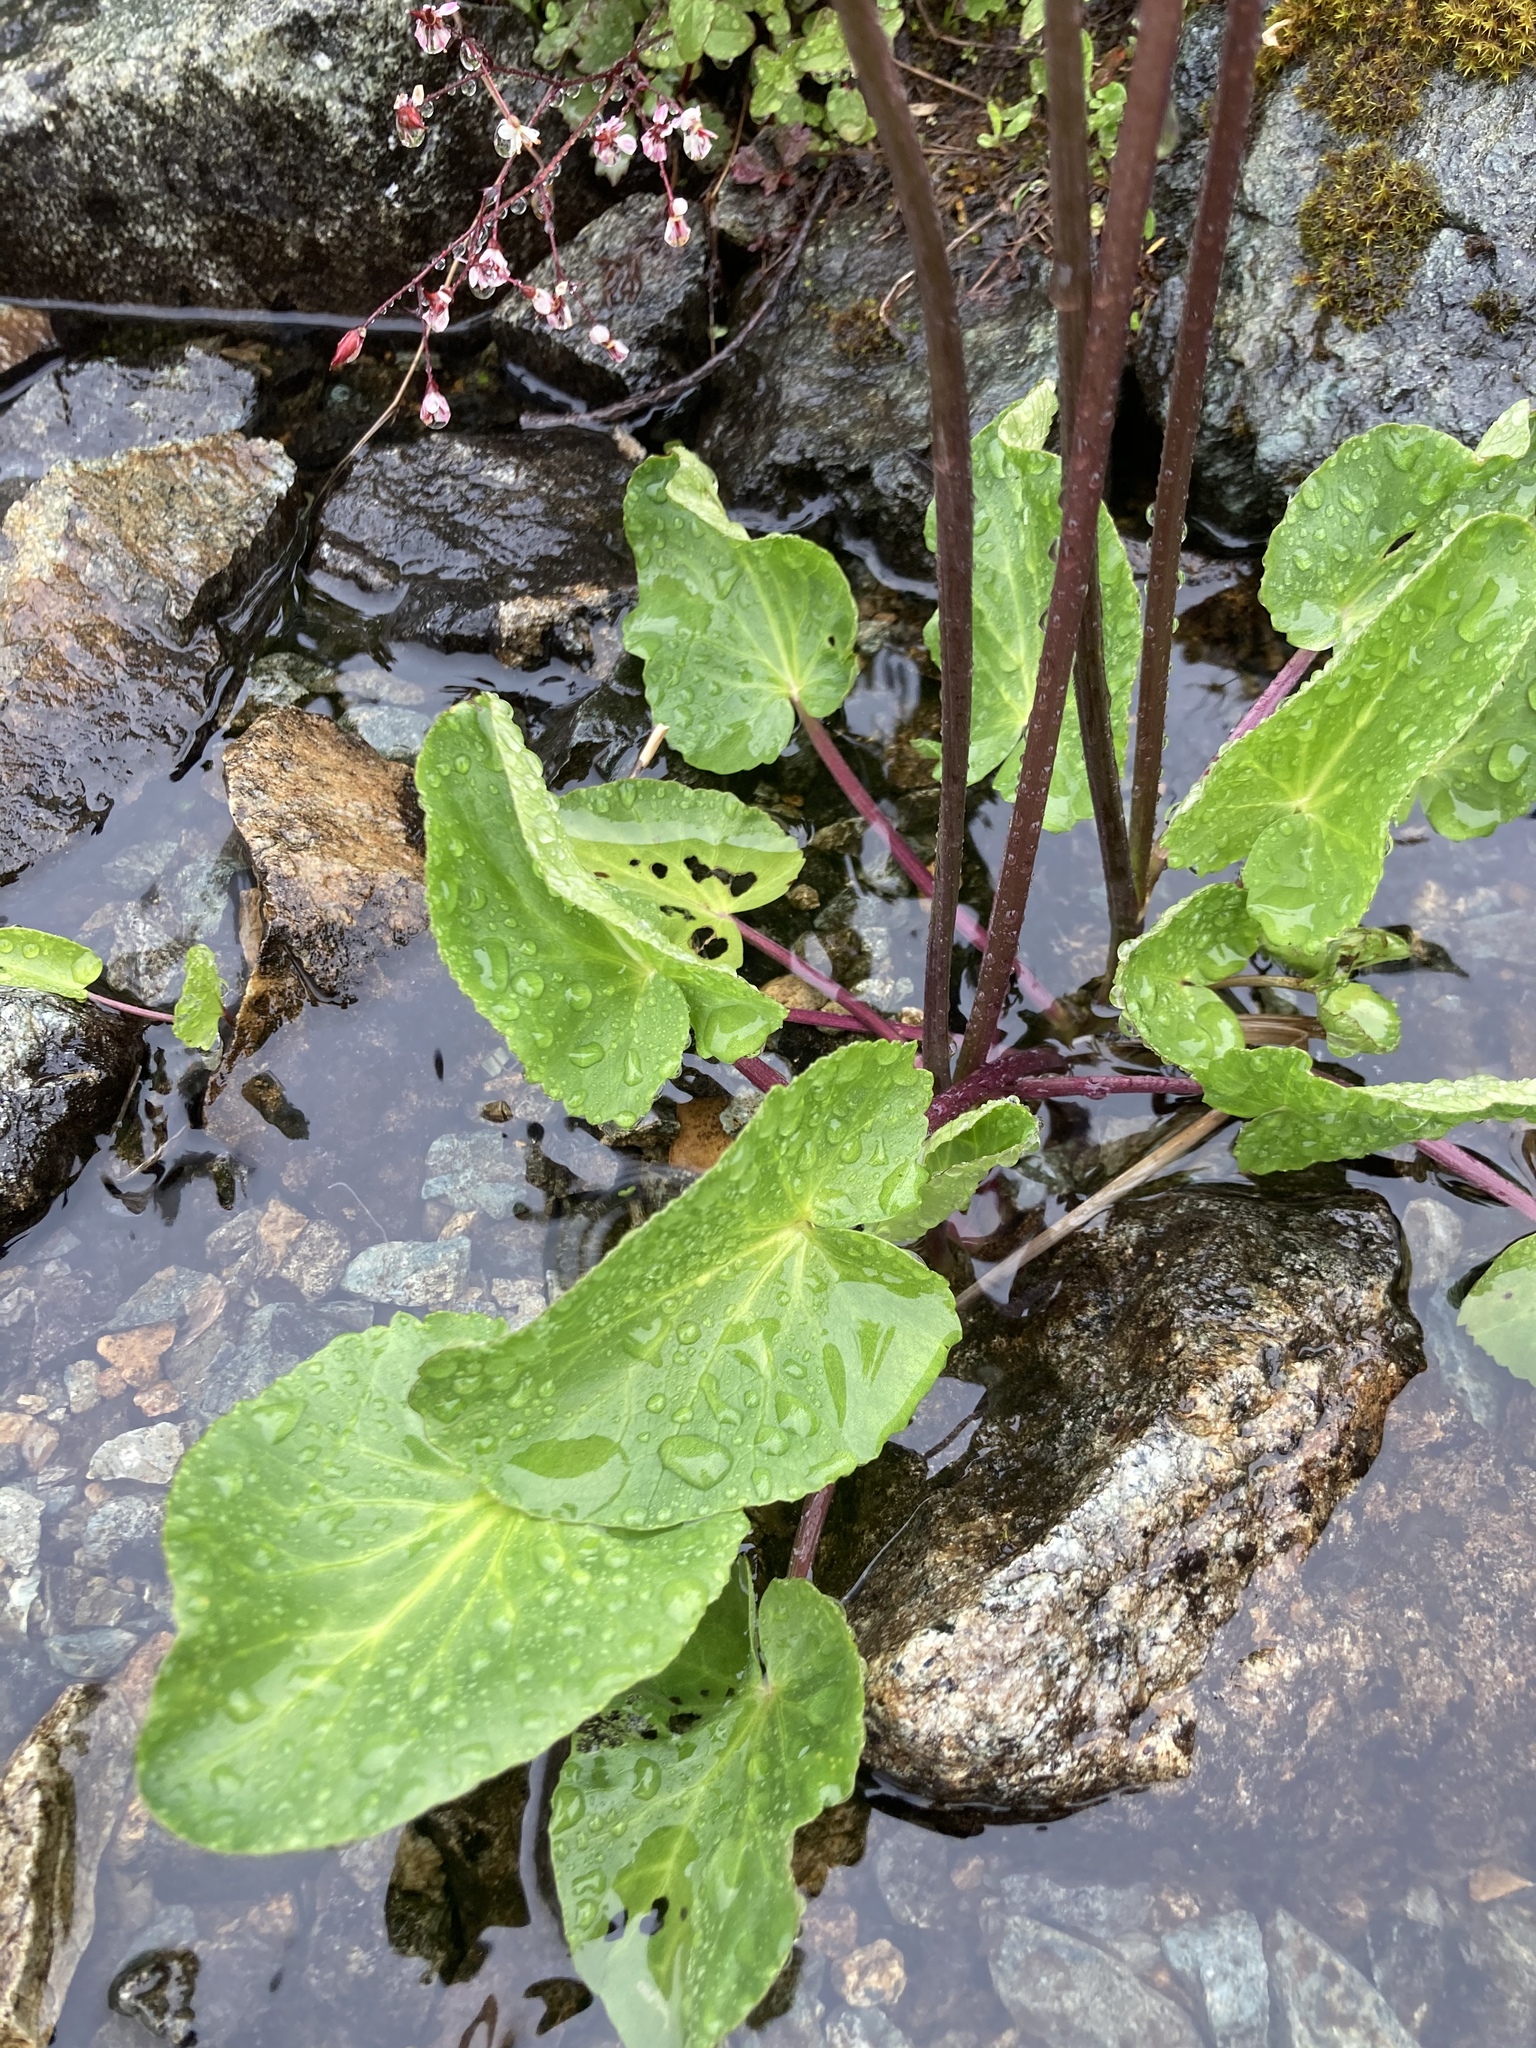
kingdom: Plantae
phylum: Tracheophyta
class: Magnoliopsida
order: Ranunculales
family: Ranunculaceae
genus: Caltha
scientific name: Caltha leptosepala
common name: Elkslip
